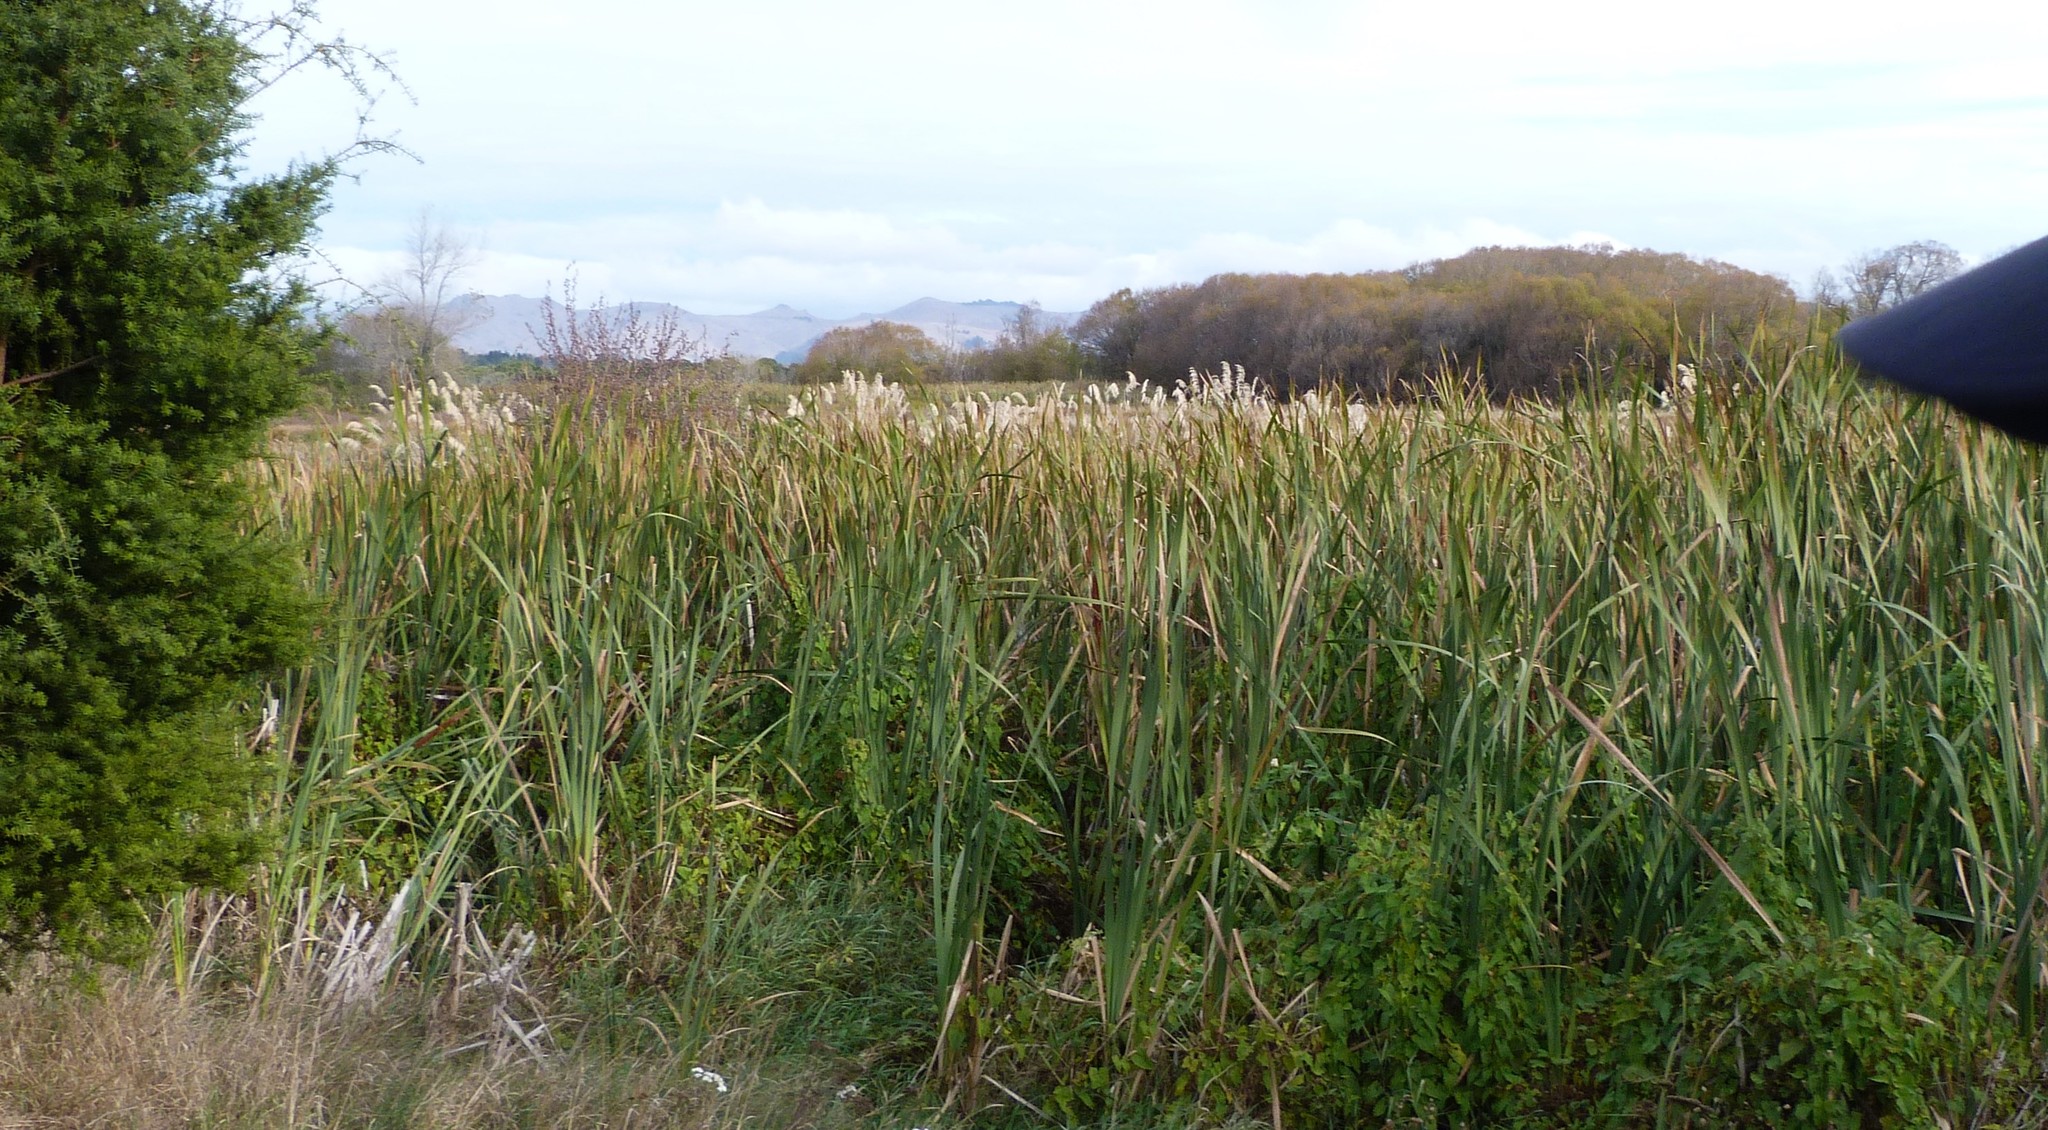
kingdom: Plantae
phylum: Tracheophyta
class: Liliopsida
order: Poales
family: Typhaceae
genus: Typha
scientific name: Typha orientalis
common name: Bullrush
